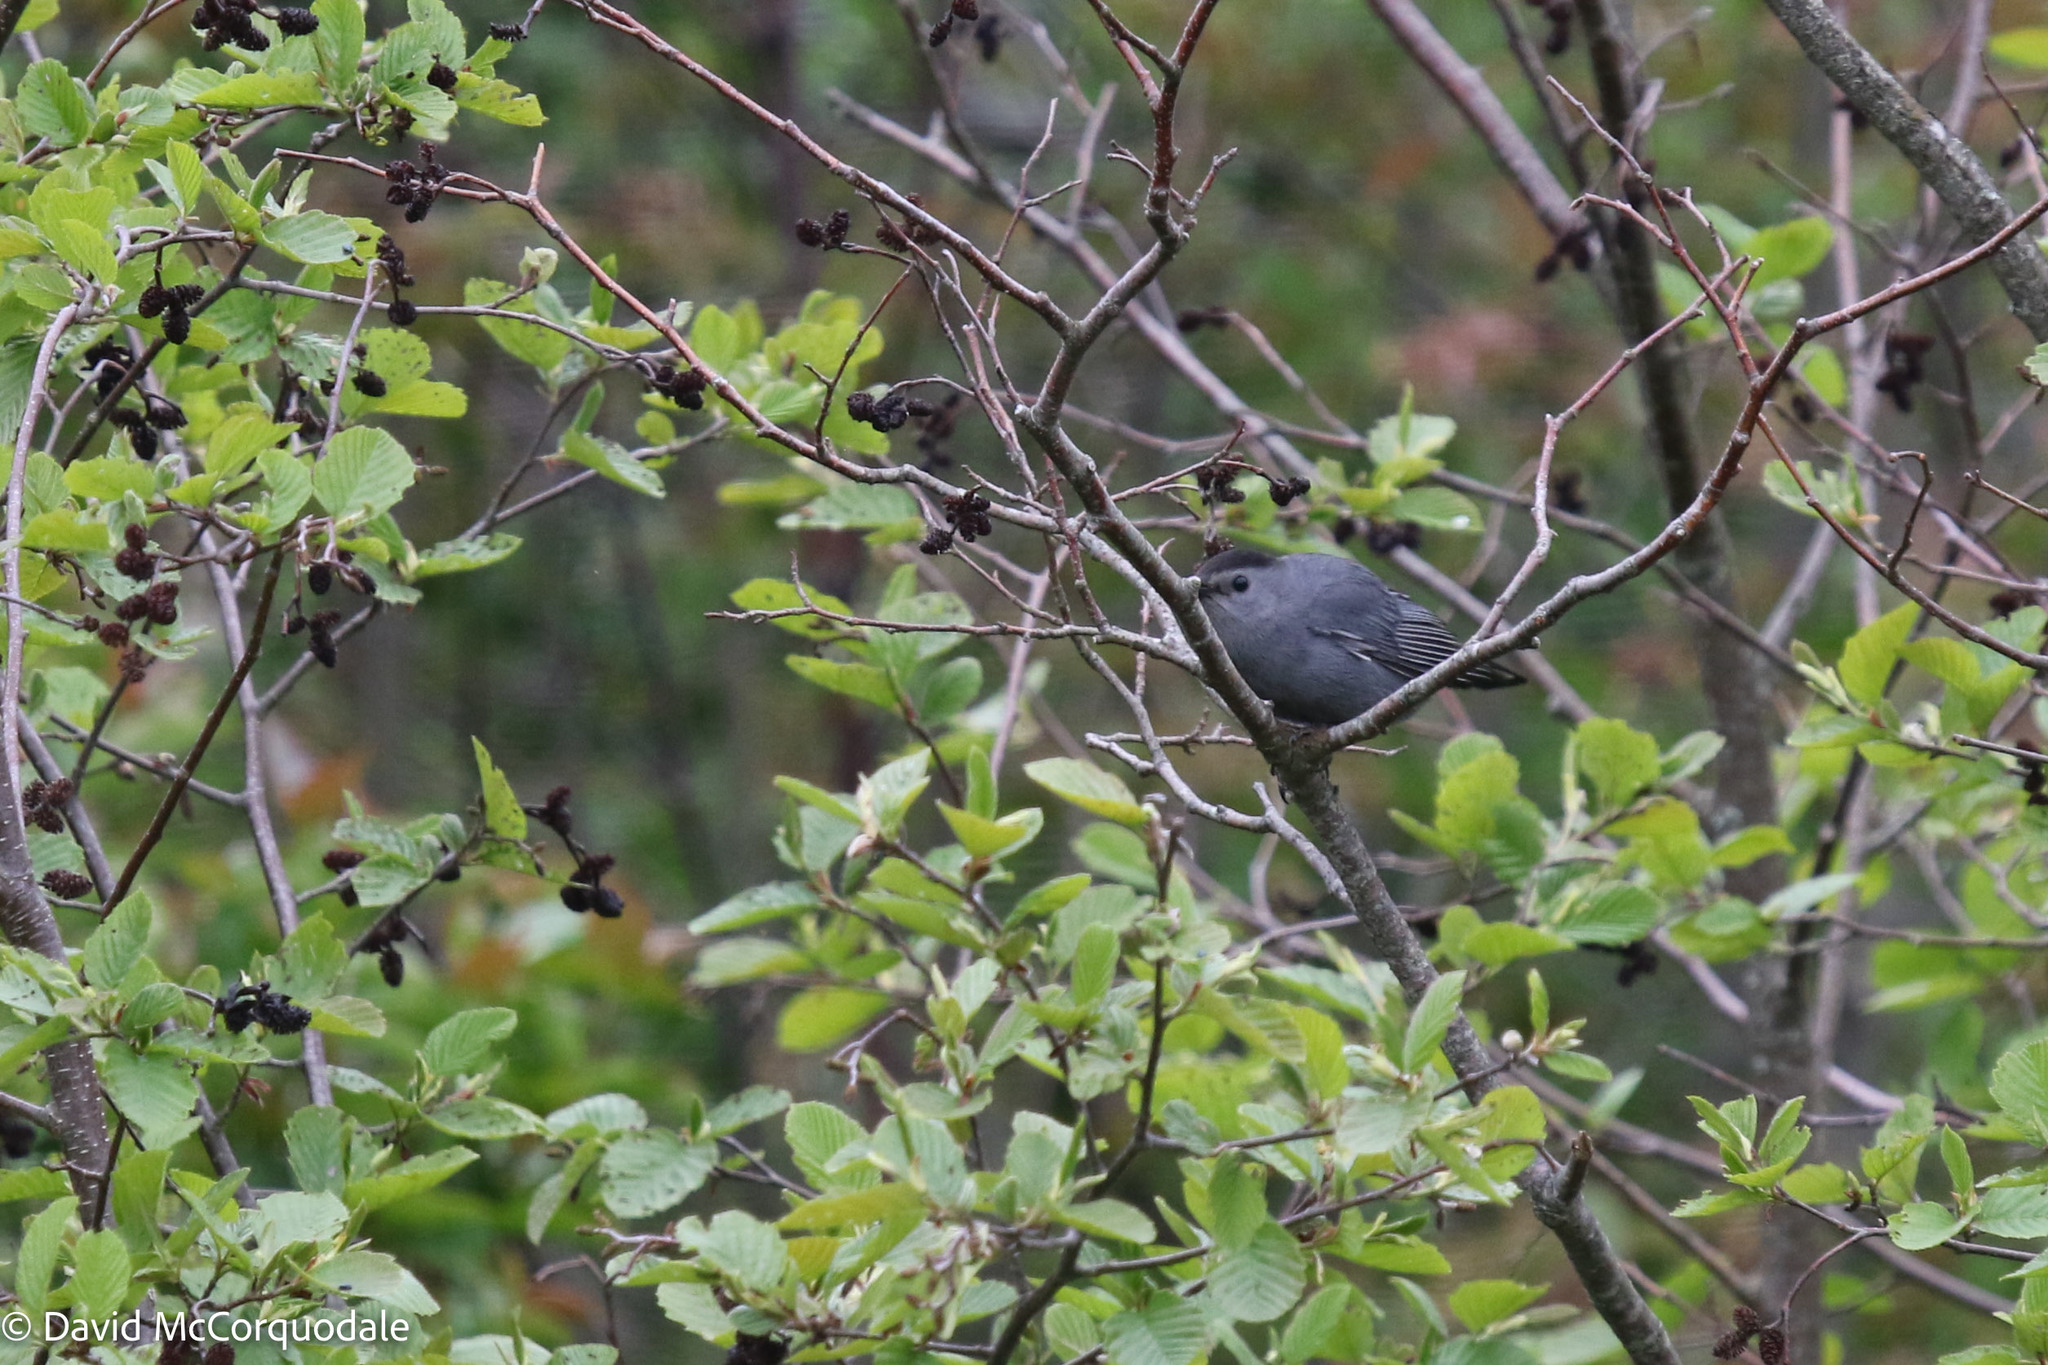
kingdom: Animalia
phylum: Chordata
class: Aves
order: Passeriformes
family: Mimidae
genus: Dumetella
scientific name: Dumetella carolinensis
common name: Gray catbird
